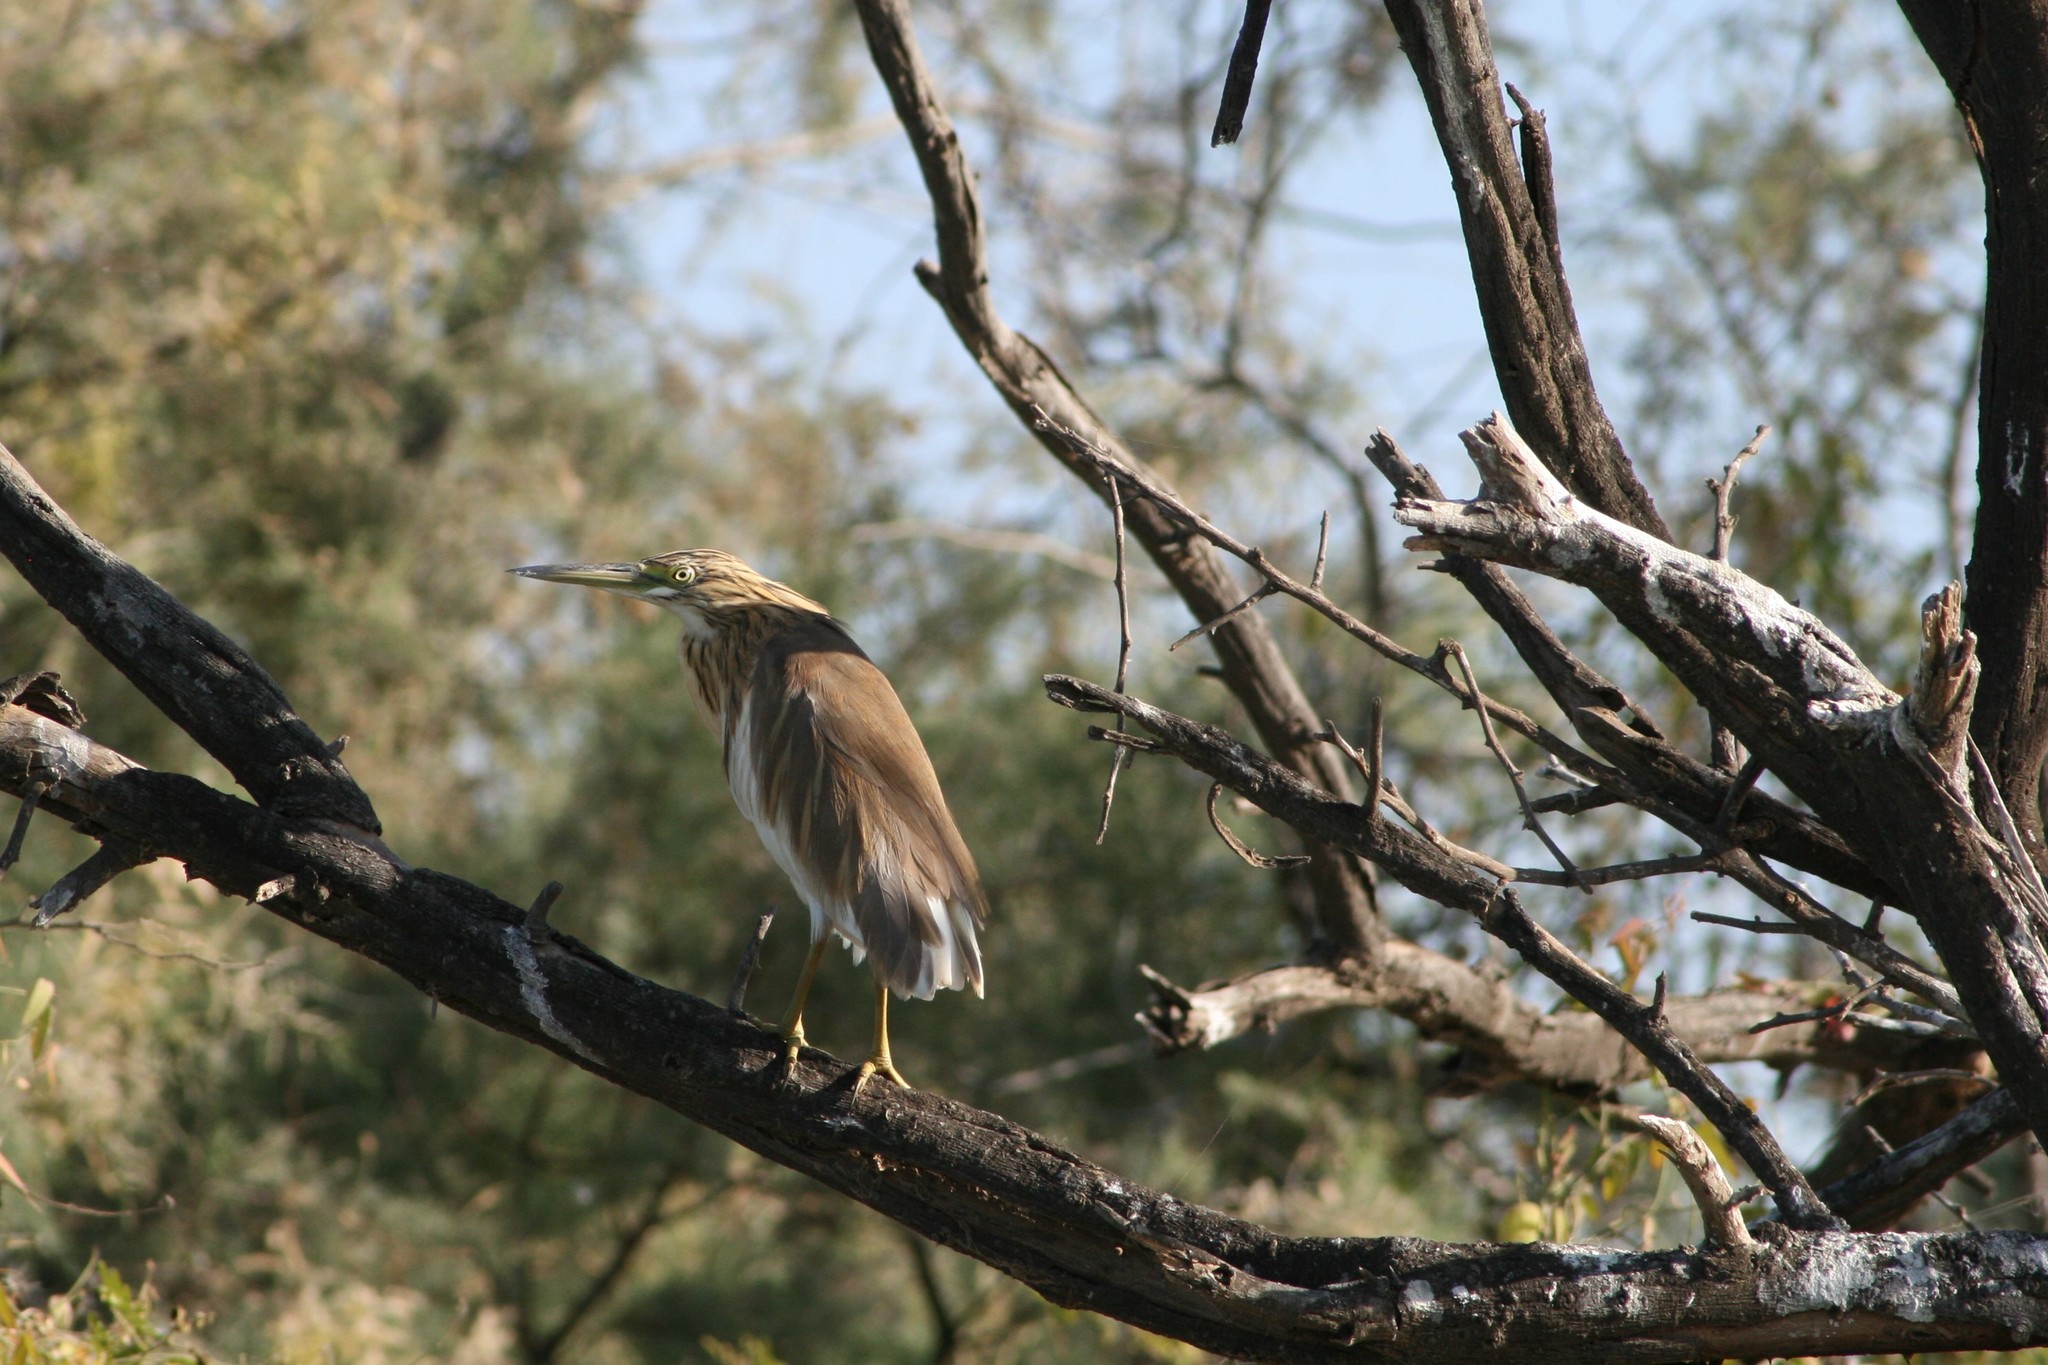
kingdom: Animalia
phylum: Chordata
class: Aves
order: Pelecaniformes
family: Ardeidae
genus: Ardeola
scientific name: Ardeola ralloides
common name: Squacco heron
